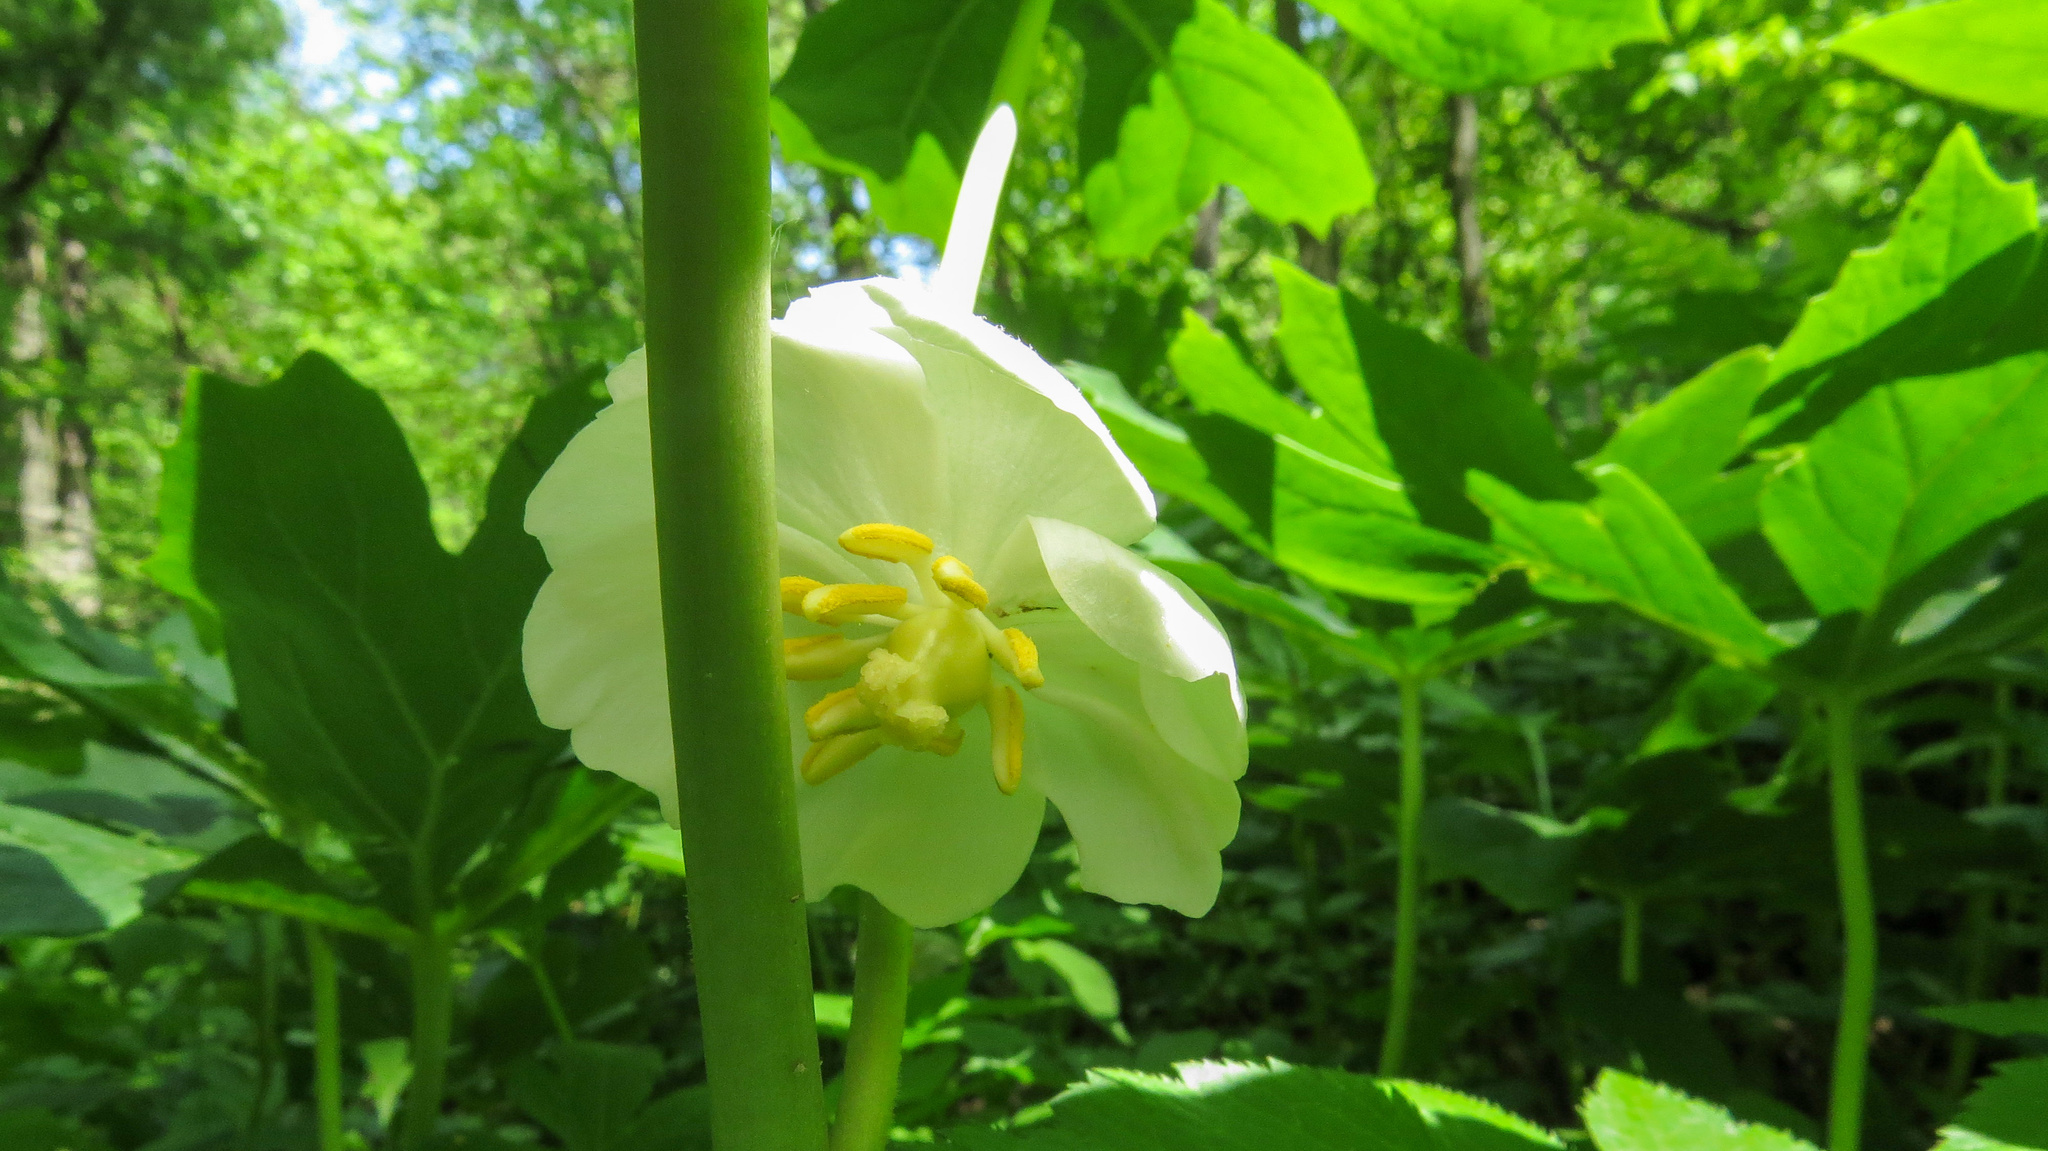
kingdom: Plantae
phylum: Tracheophyta
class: Magnoliopsida
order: Ranunculales
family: Berberidaceae
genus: Podophyllum
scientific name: Podophyllum peltatum
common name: Wild mandrake
